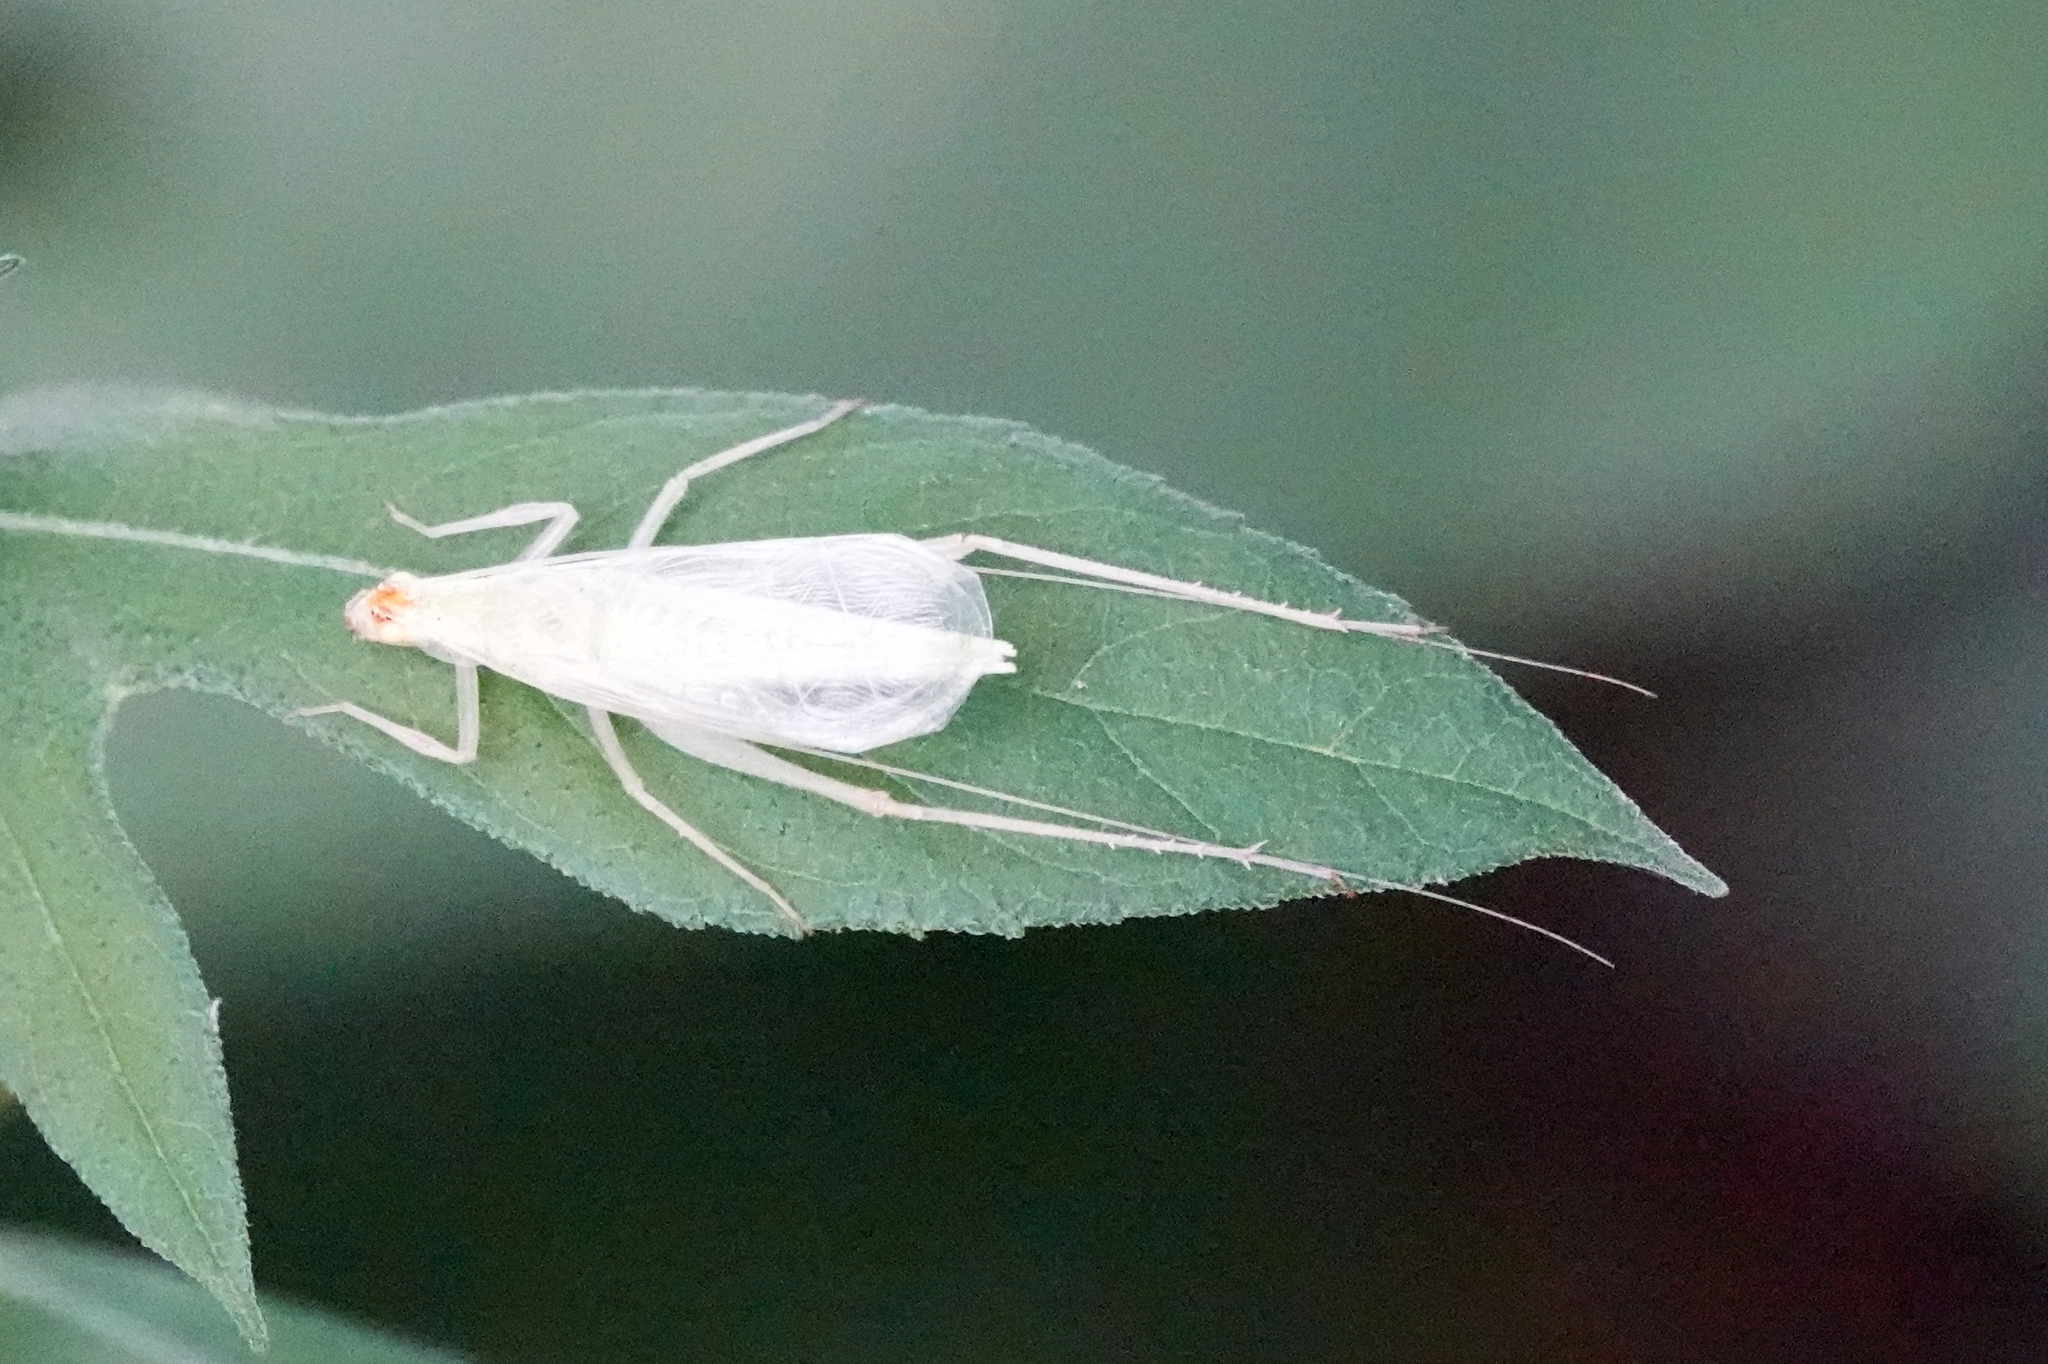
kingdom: Animalia
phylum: Arthropoda
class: Insecta
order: Orthoptera
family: Gryllidae
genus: Oecanthus
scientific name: Oecanthus fultoni
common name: Snowy tree cricket
